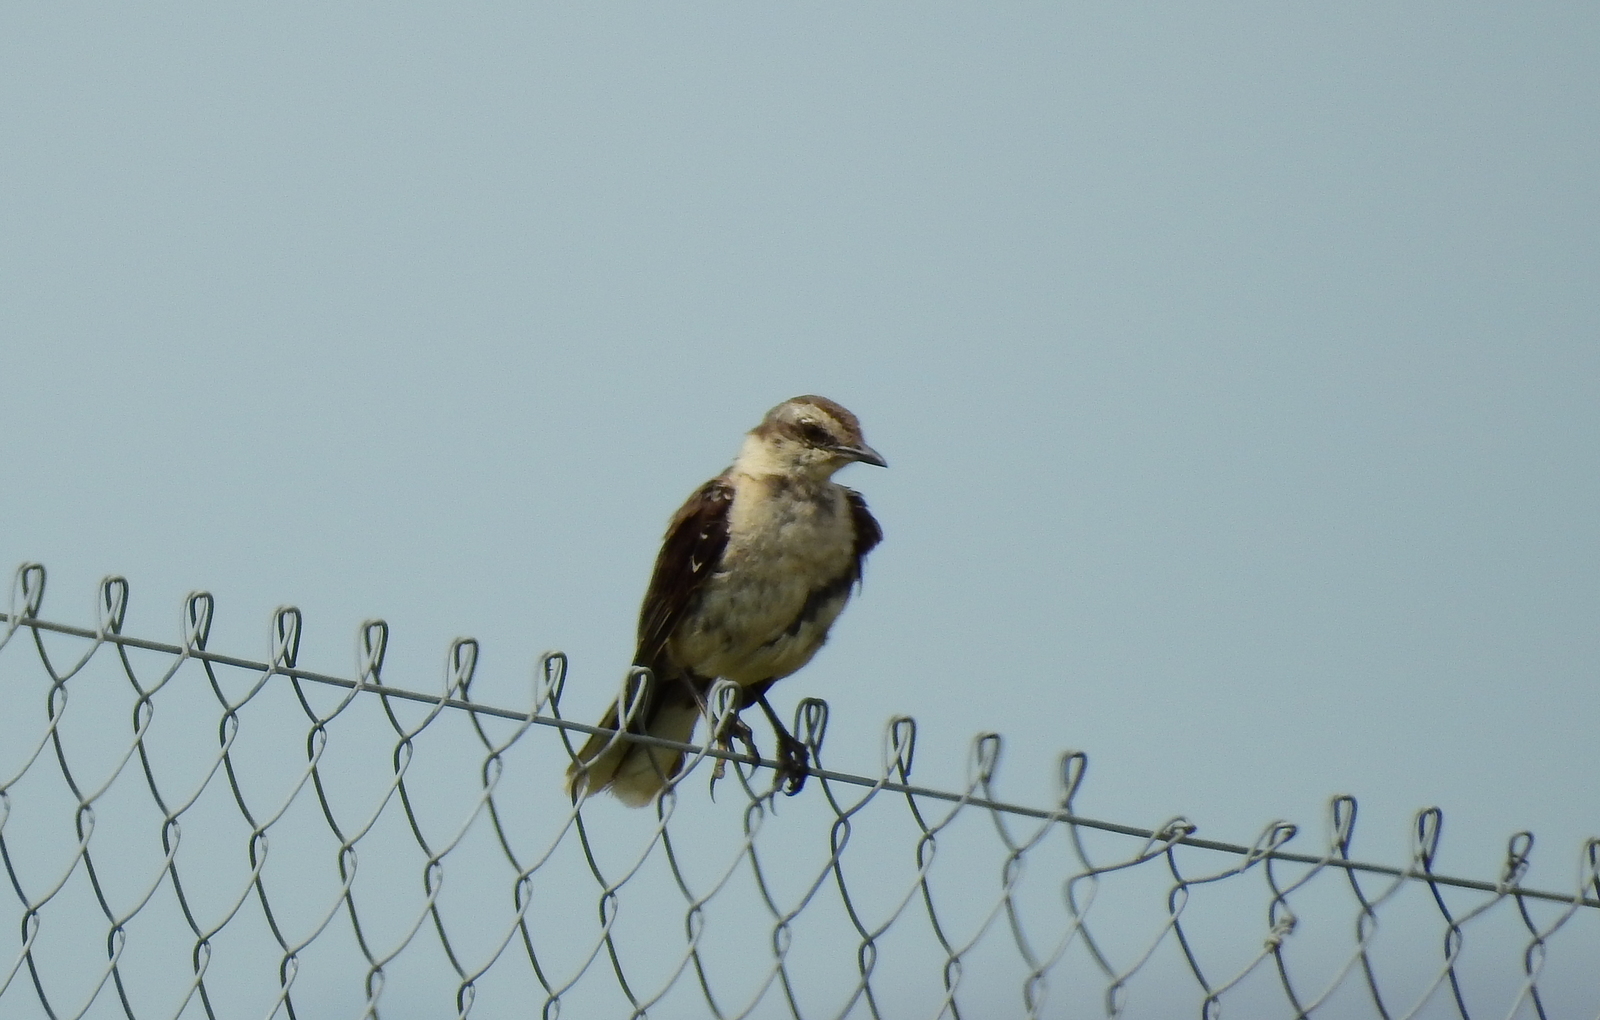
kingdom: Animalia
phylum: Chordata
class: Aves
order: Passeriformes
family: Mimidae
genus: Mimus
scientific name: Mimus saturninus
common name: Chalk-browed mockingbird
